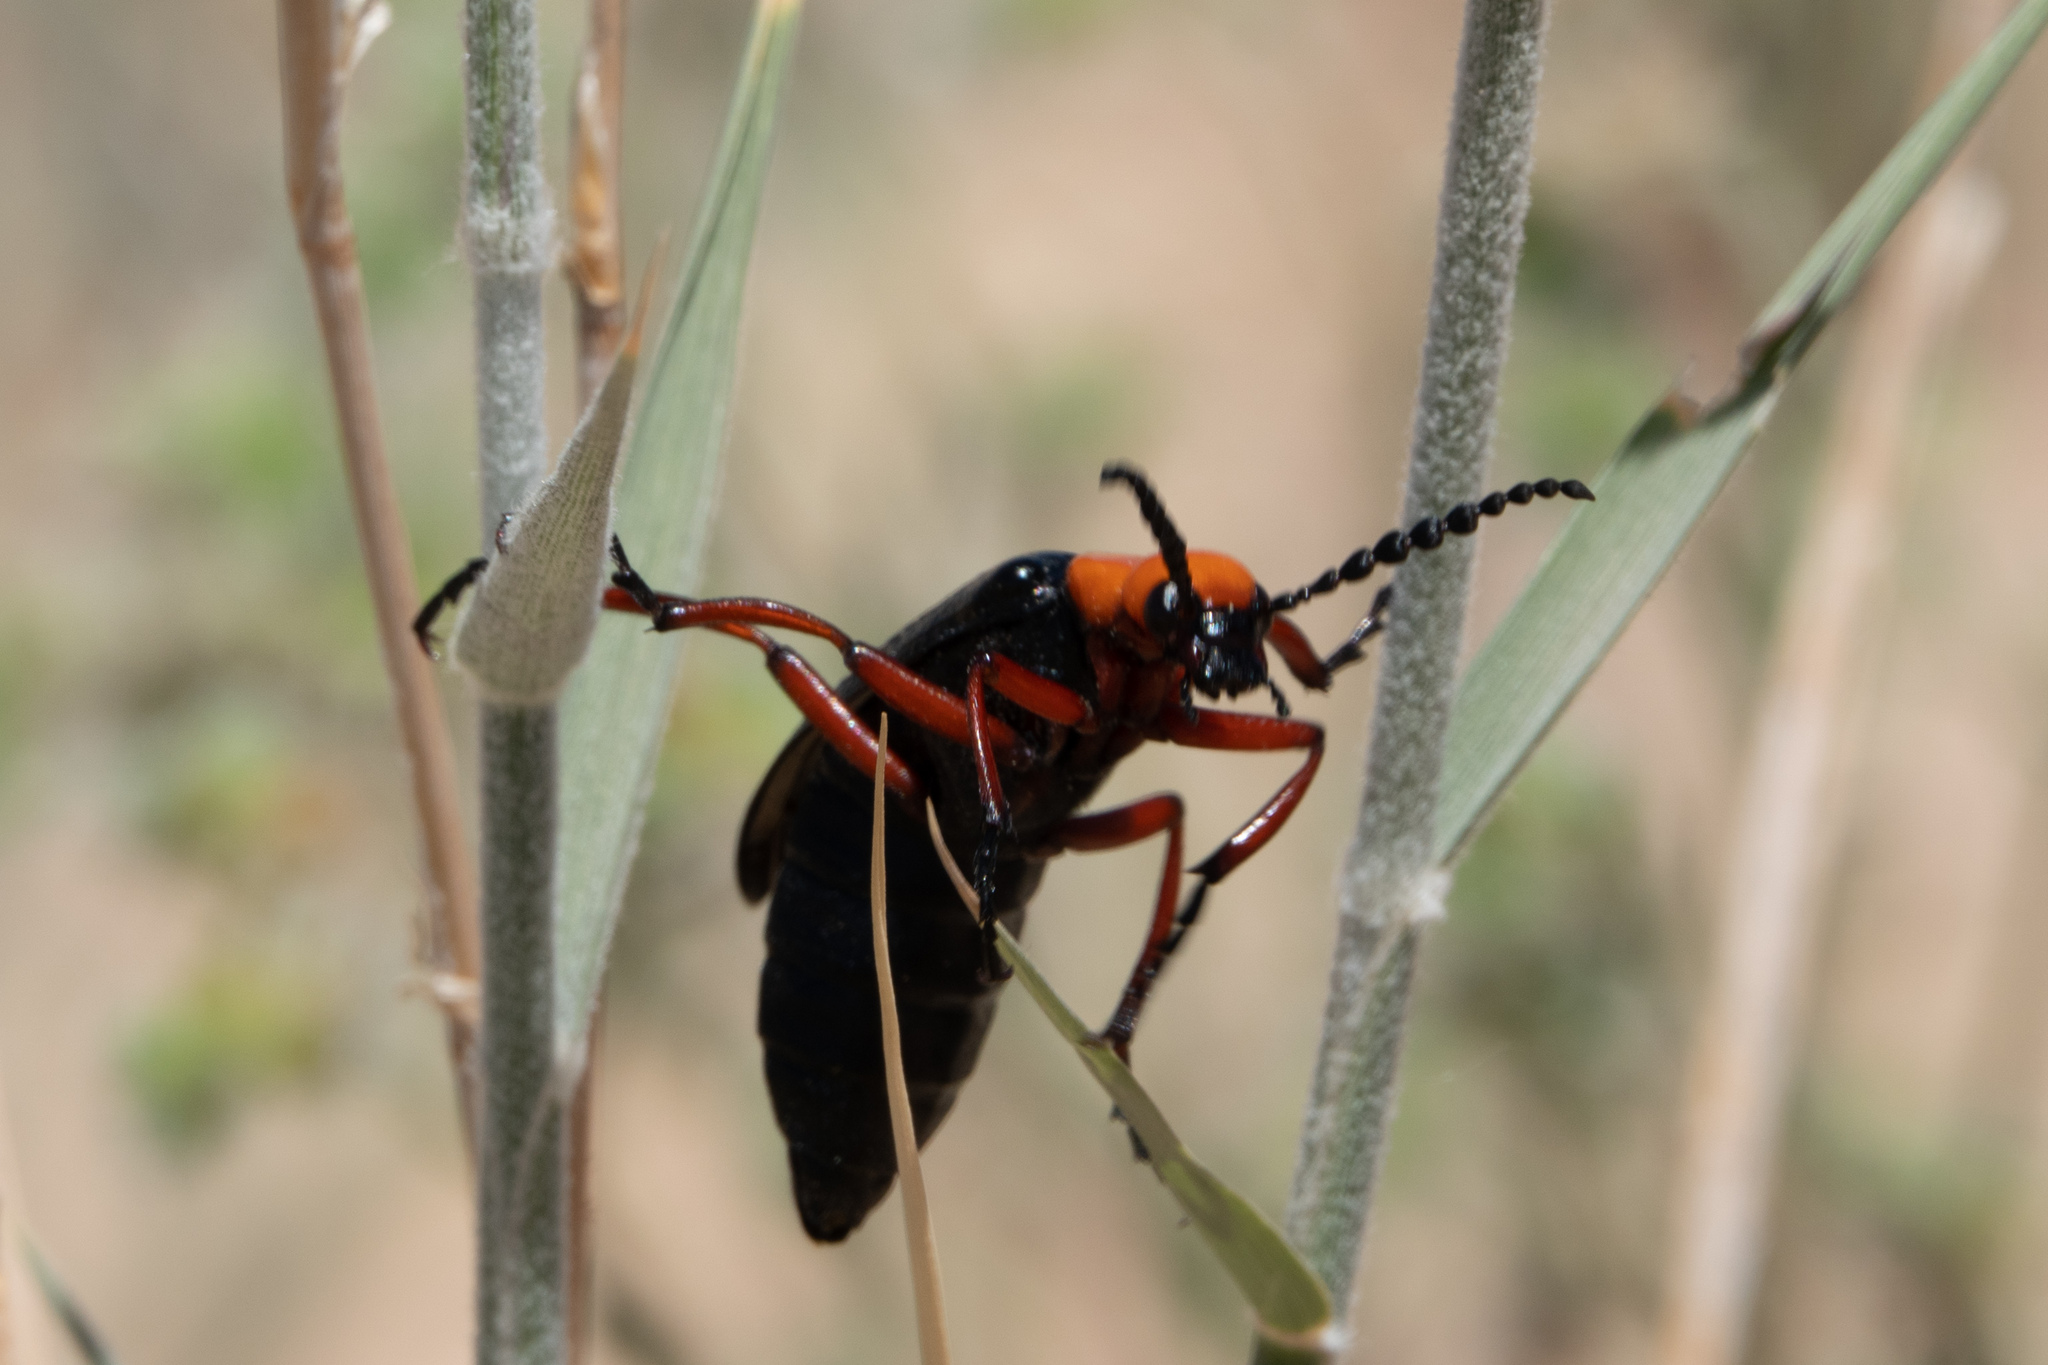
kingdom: Animalia
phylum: Arthropoda
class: Insecta
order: Coleoptera
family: Meloidae
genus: Lytta
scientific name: Lytta magister
